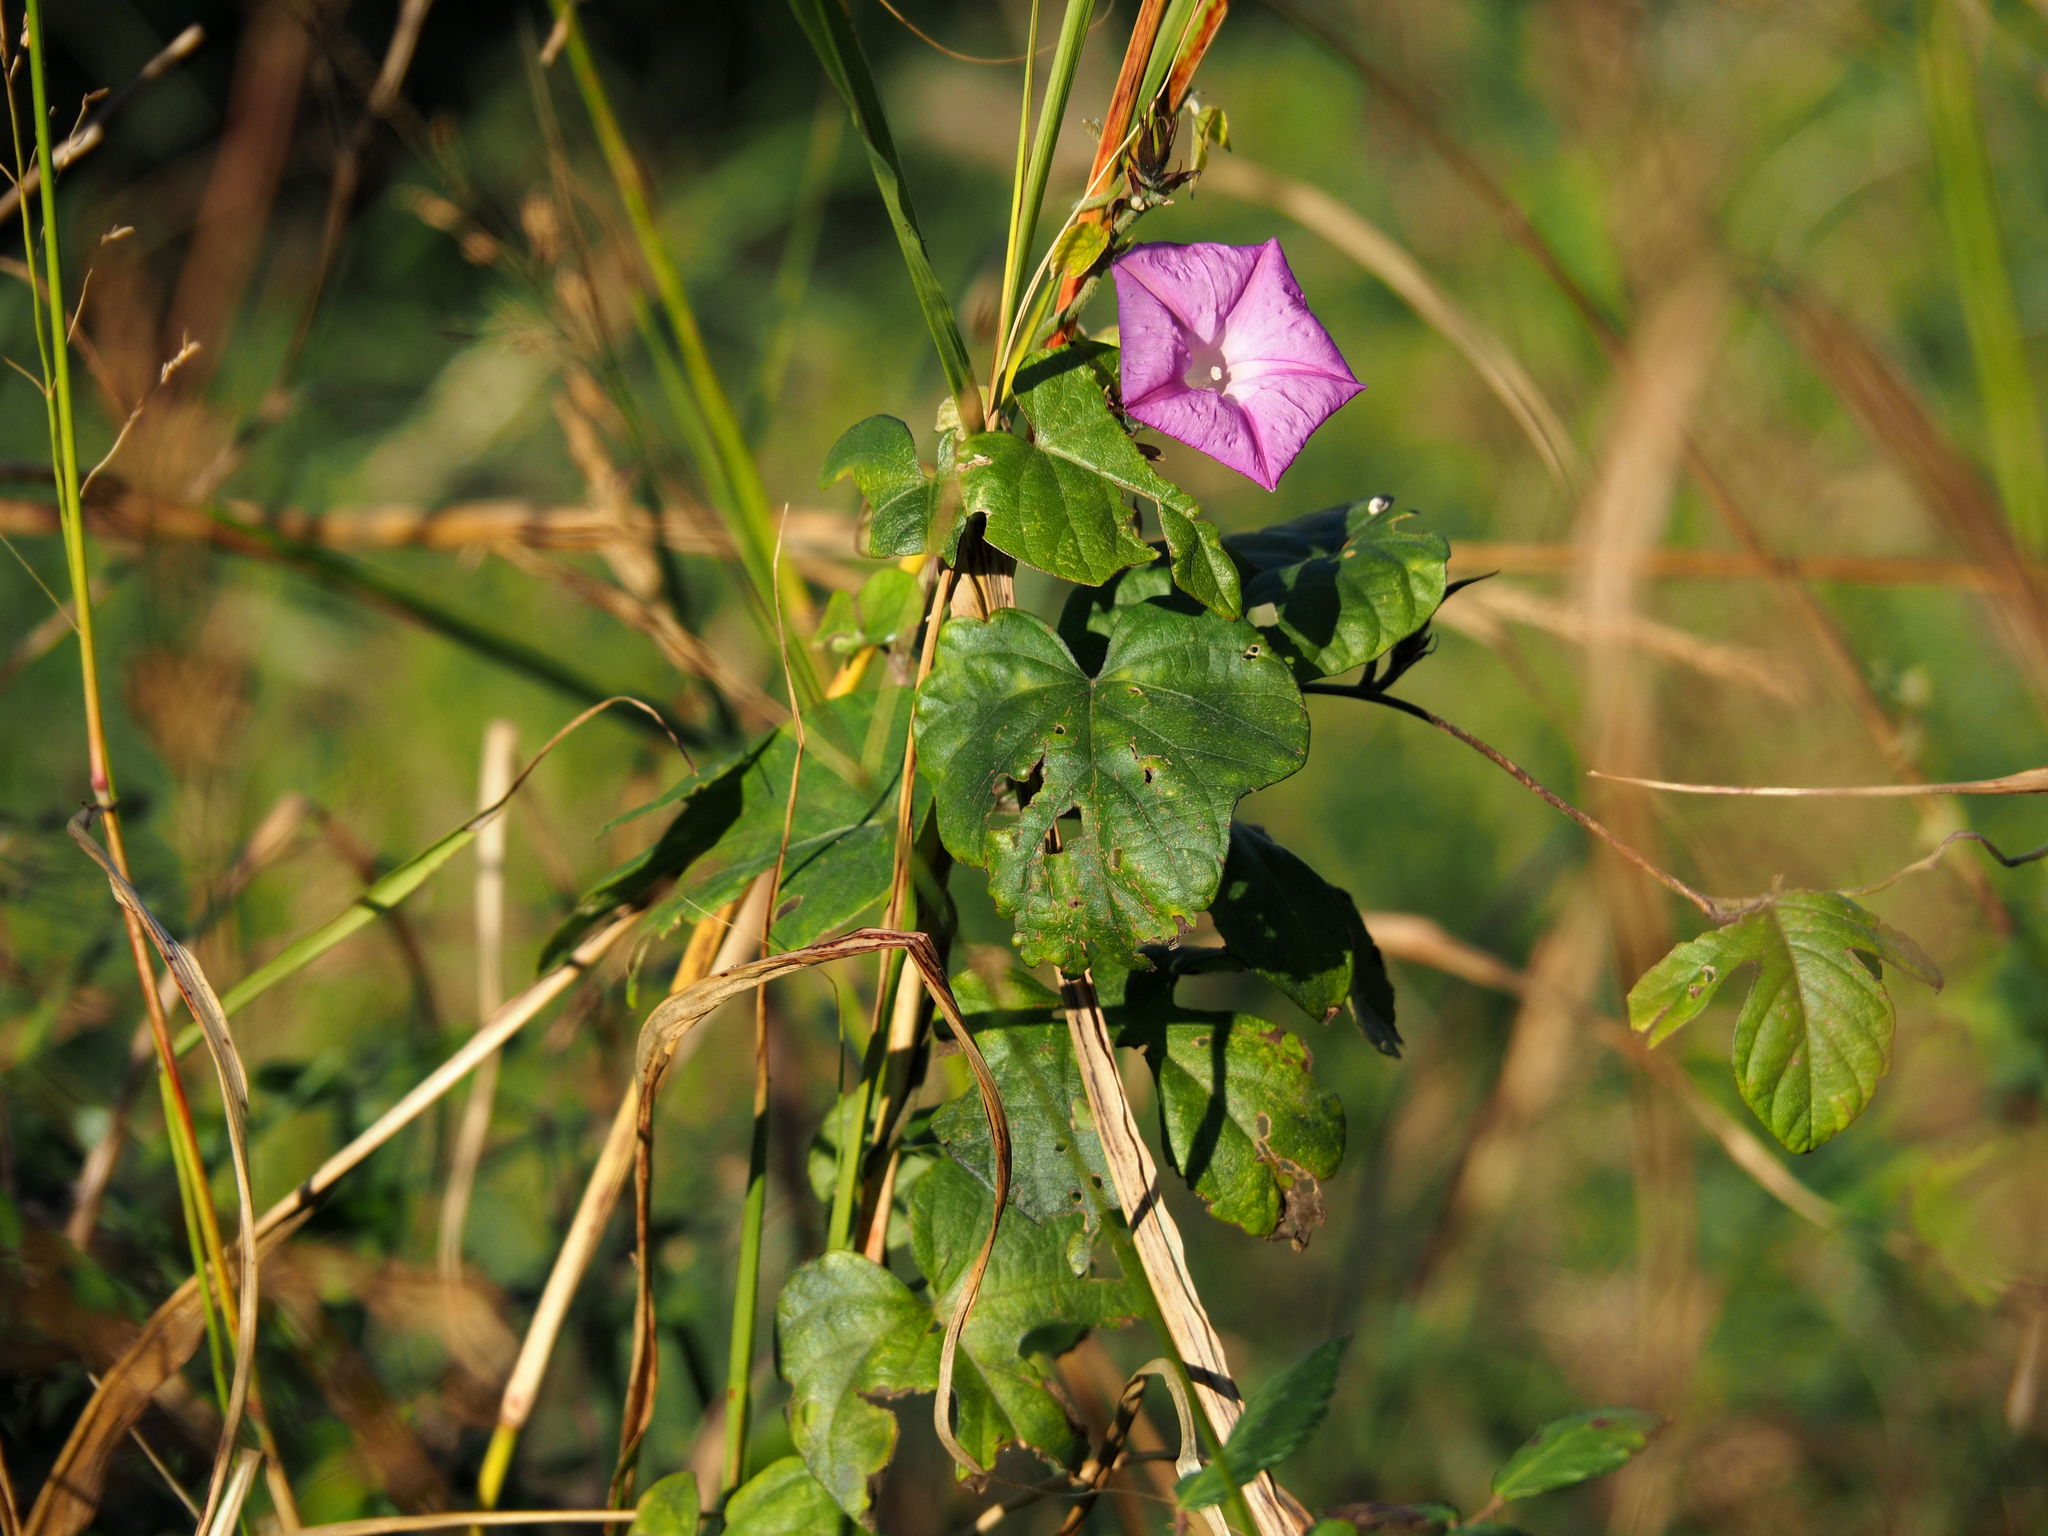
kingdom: Plantae
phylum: Tracheophyta
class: Magnoliopsida
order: Solanales
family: Convolvulaceae
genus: Ipomoea
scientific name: Ipomoea indica
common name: Blue dawnflower
